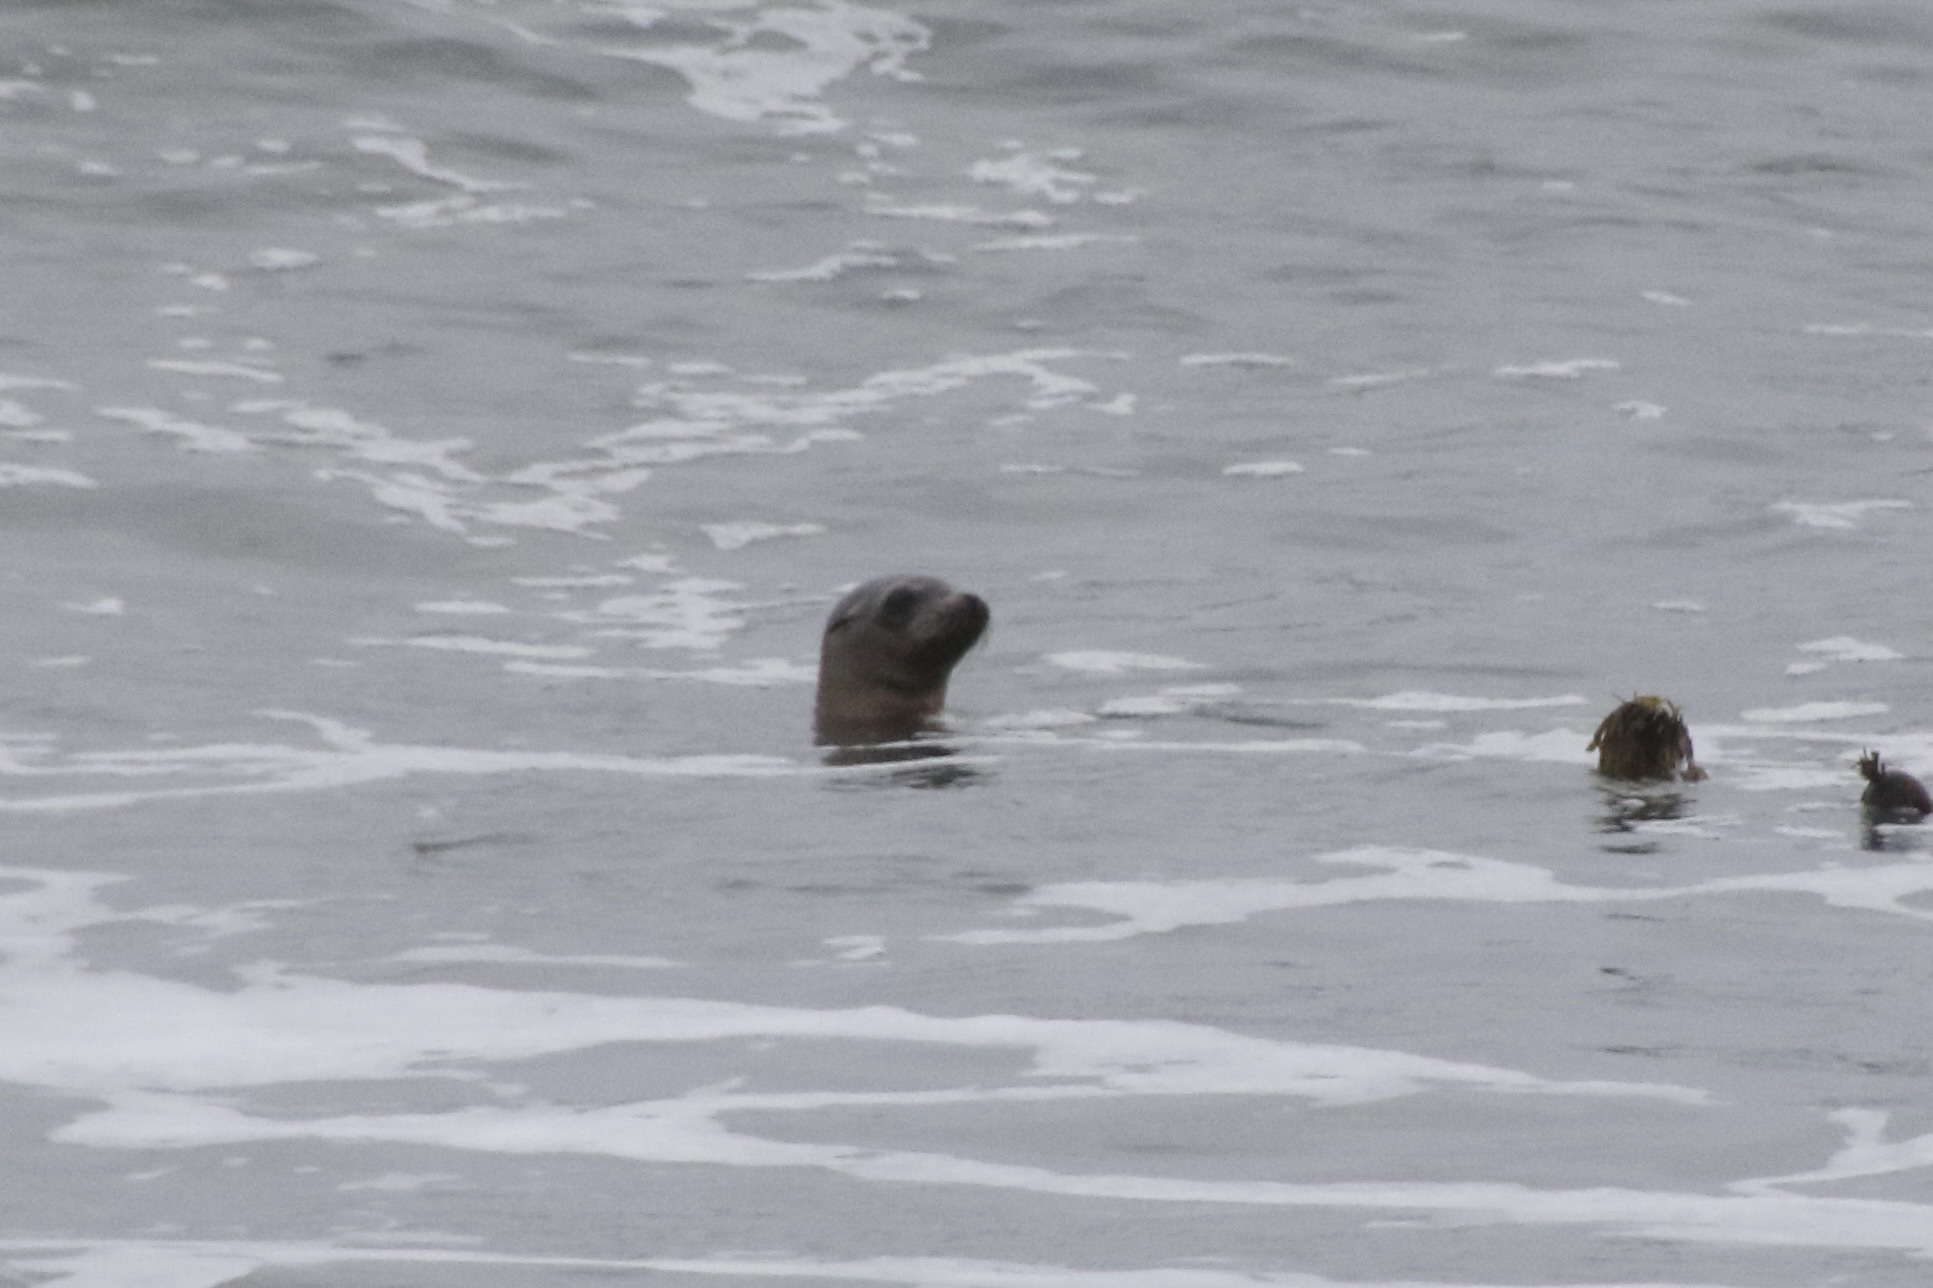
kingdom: Animalia
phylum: Chordata
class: Mammalia
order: Carnivora
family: Otariidae
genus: Zalophus
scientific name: Zalophus californianus
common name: California sea lion
